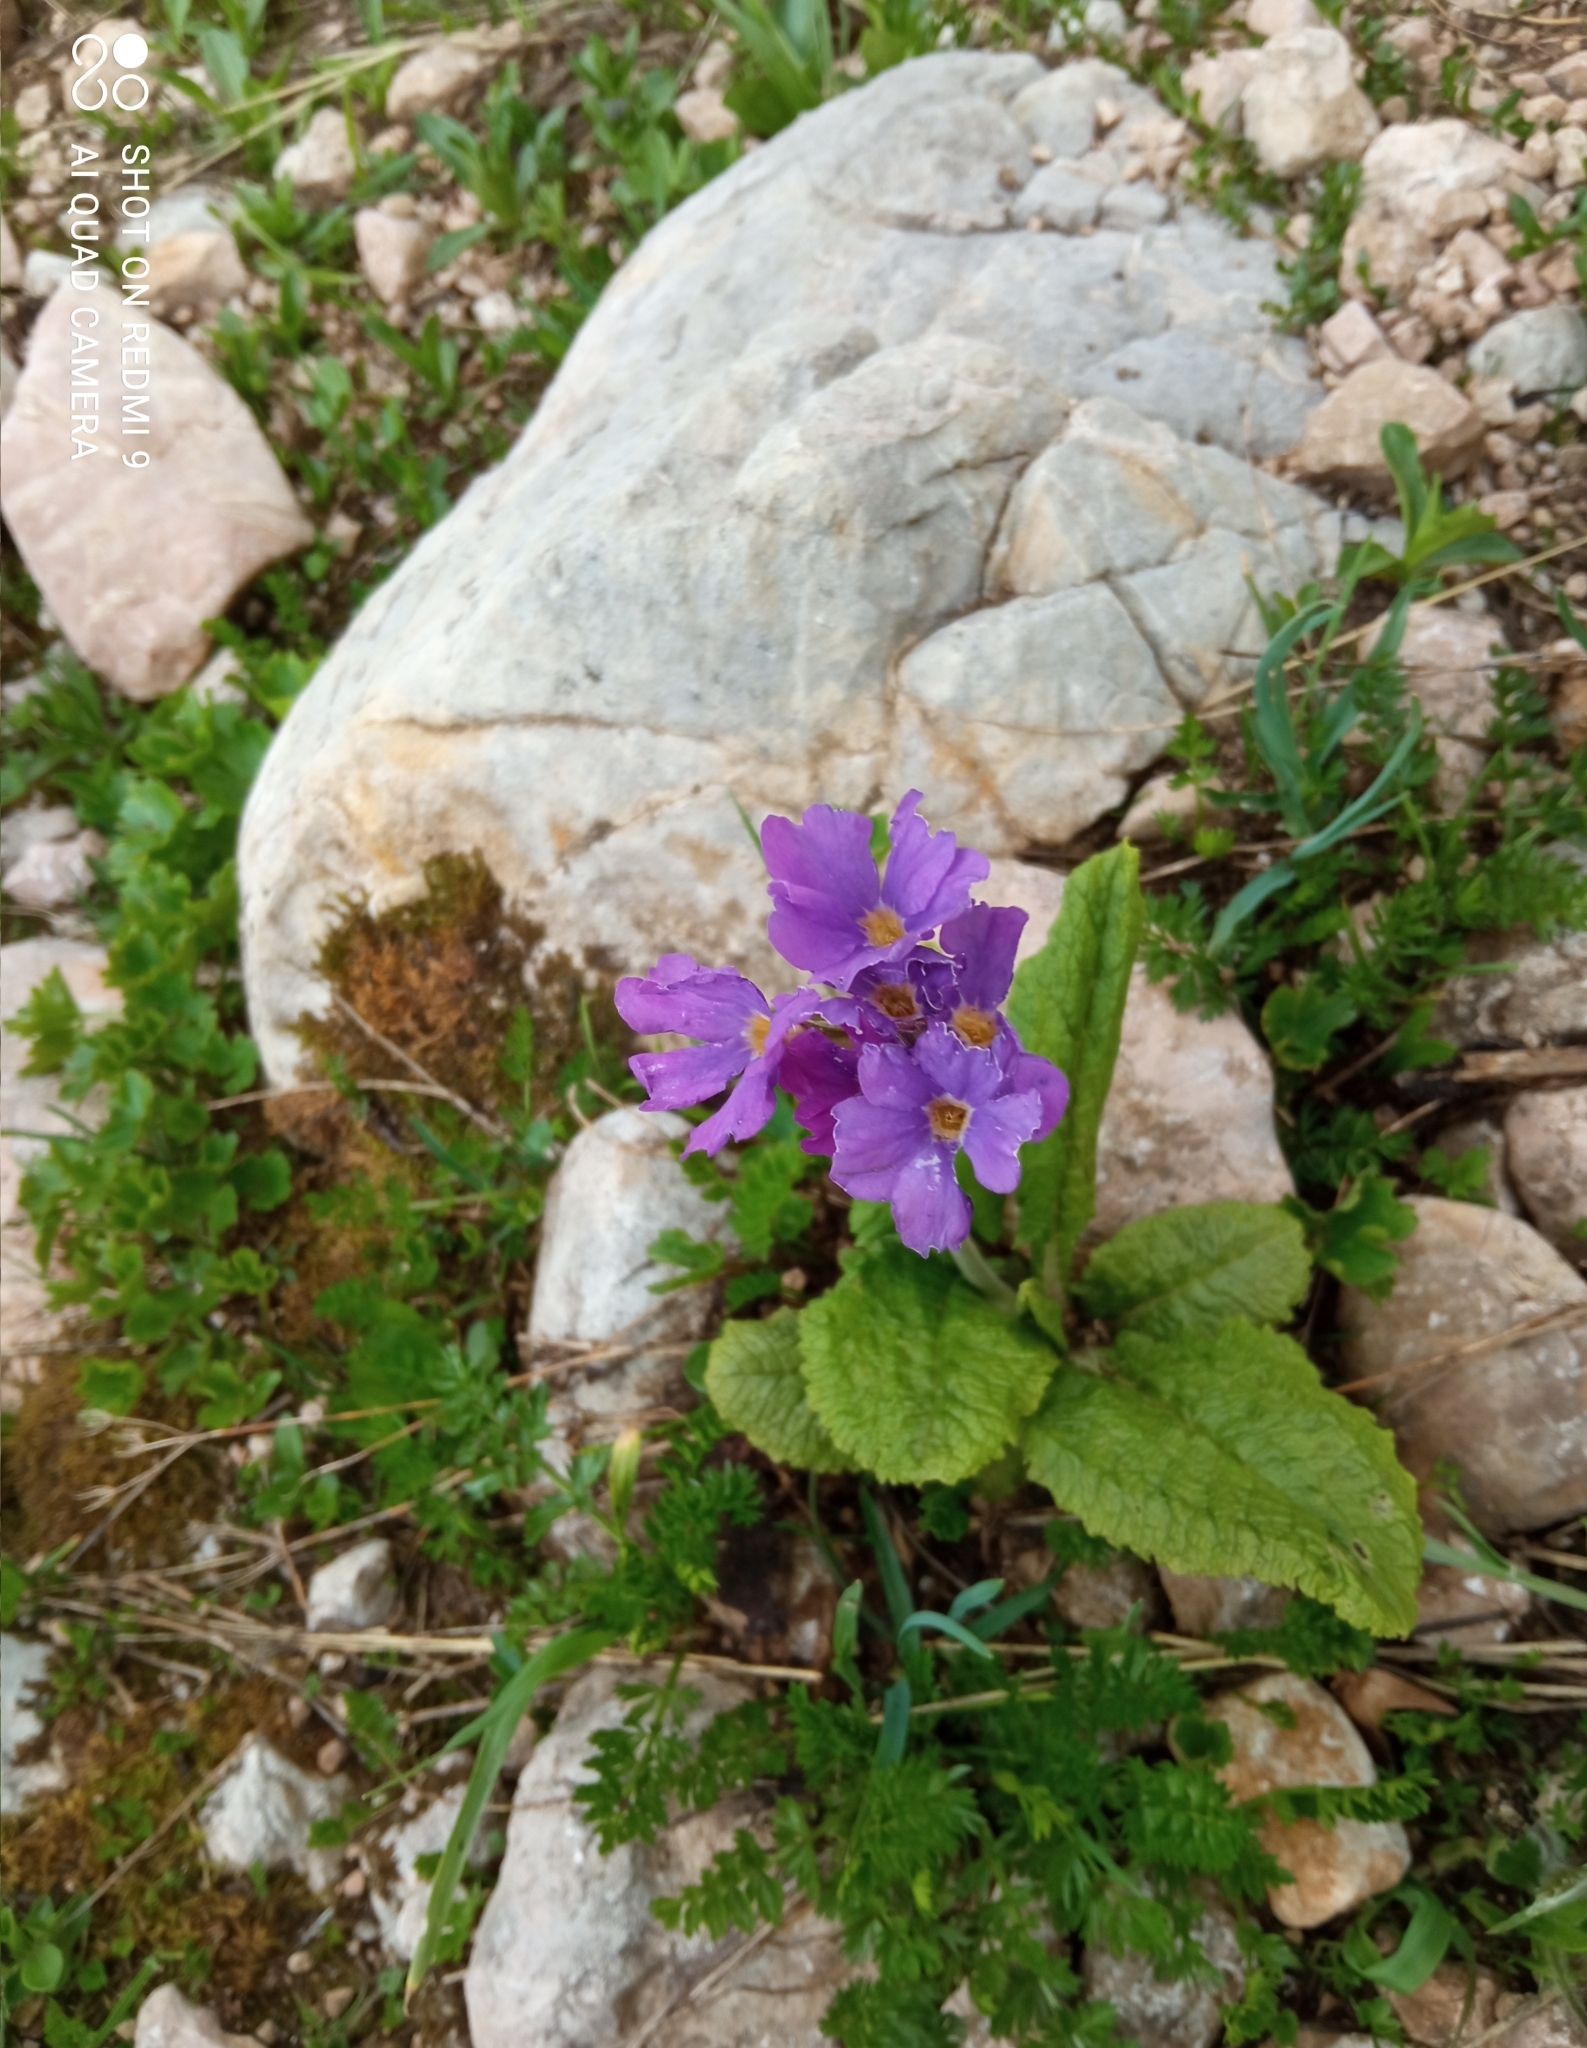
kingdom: Plantae
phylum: Tracheophyta
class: Magnoliopsida
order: Ericales
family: Primulaceae
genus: Primula
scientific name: Primula amoena
